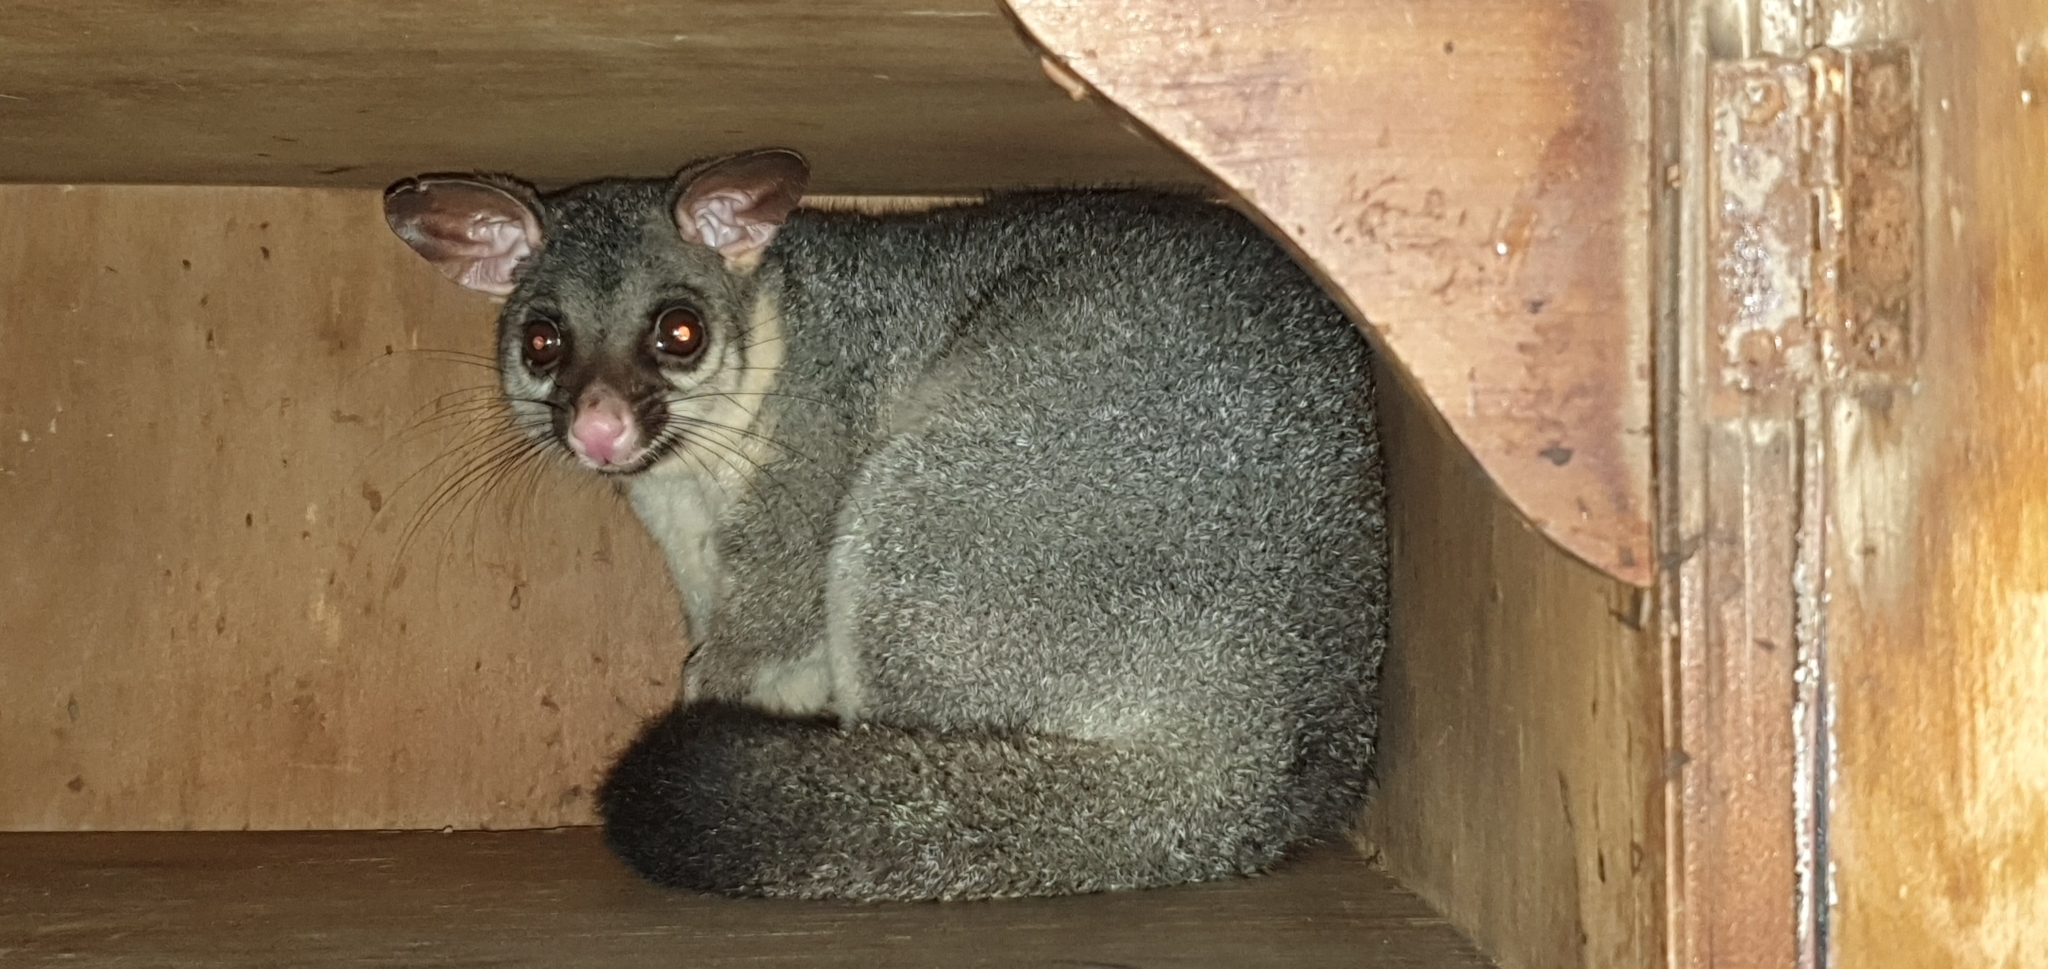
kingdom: Animalia
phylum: Chordata
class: Mammalia
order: Diprotodontia
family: Phalangeridae
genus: Trichosurus
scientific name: Trichosurus vulpecula
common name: Common brushtail
